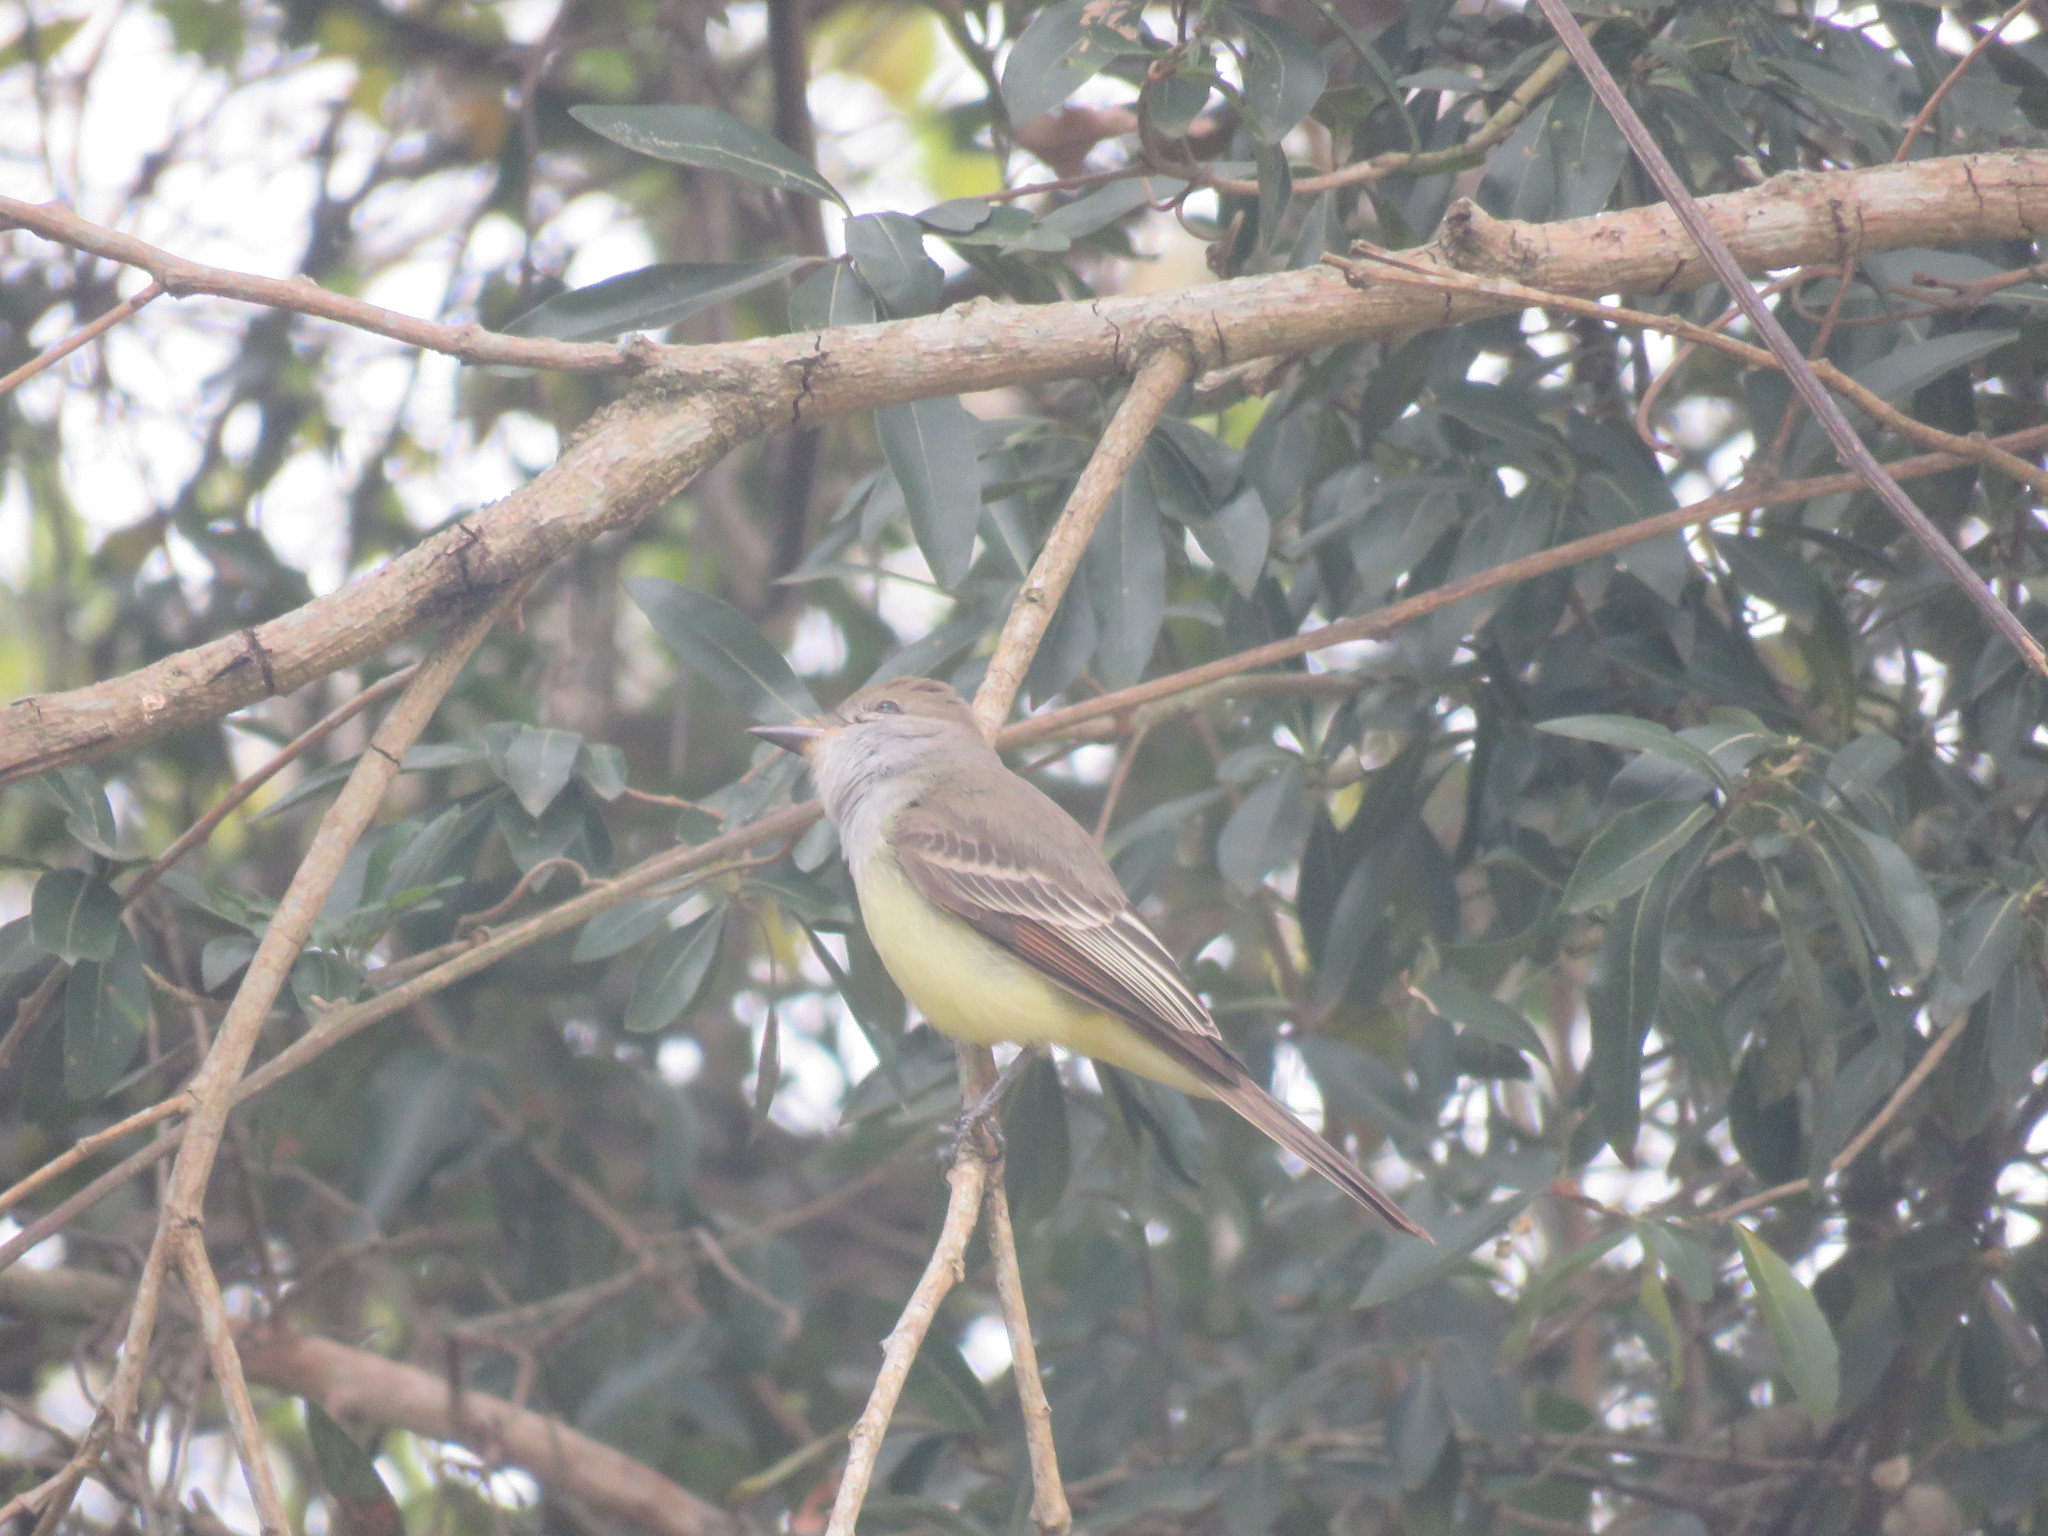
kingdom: Animalia
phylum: Chordata
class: Aves
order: Passeriformes
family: Tyrannidae
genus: Myiarchus
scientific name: Myiarchus tyrannulus
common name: Brown-crested flycatcher
